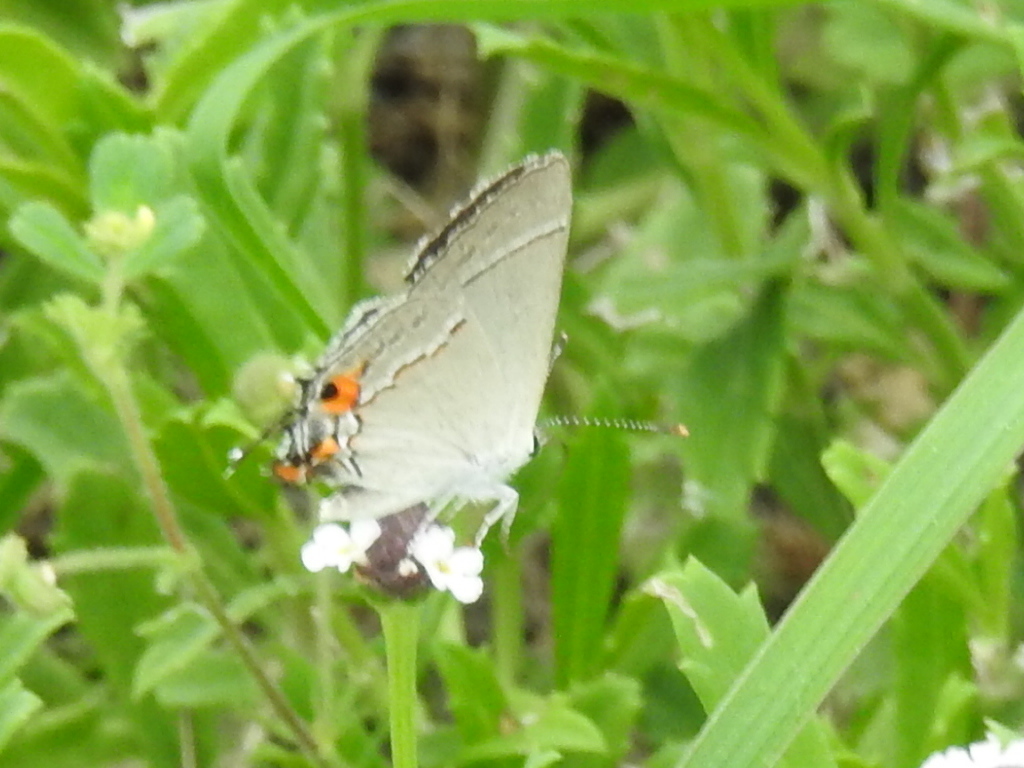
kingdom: Animalia
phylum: Arthropoda
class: Insecta
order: Lepidoptera
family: Lycaenidae
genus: Strymon
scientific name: Strymon melinus
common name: Gray hairstreak
